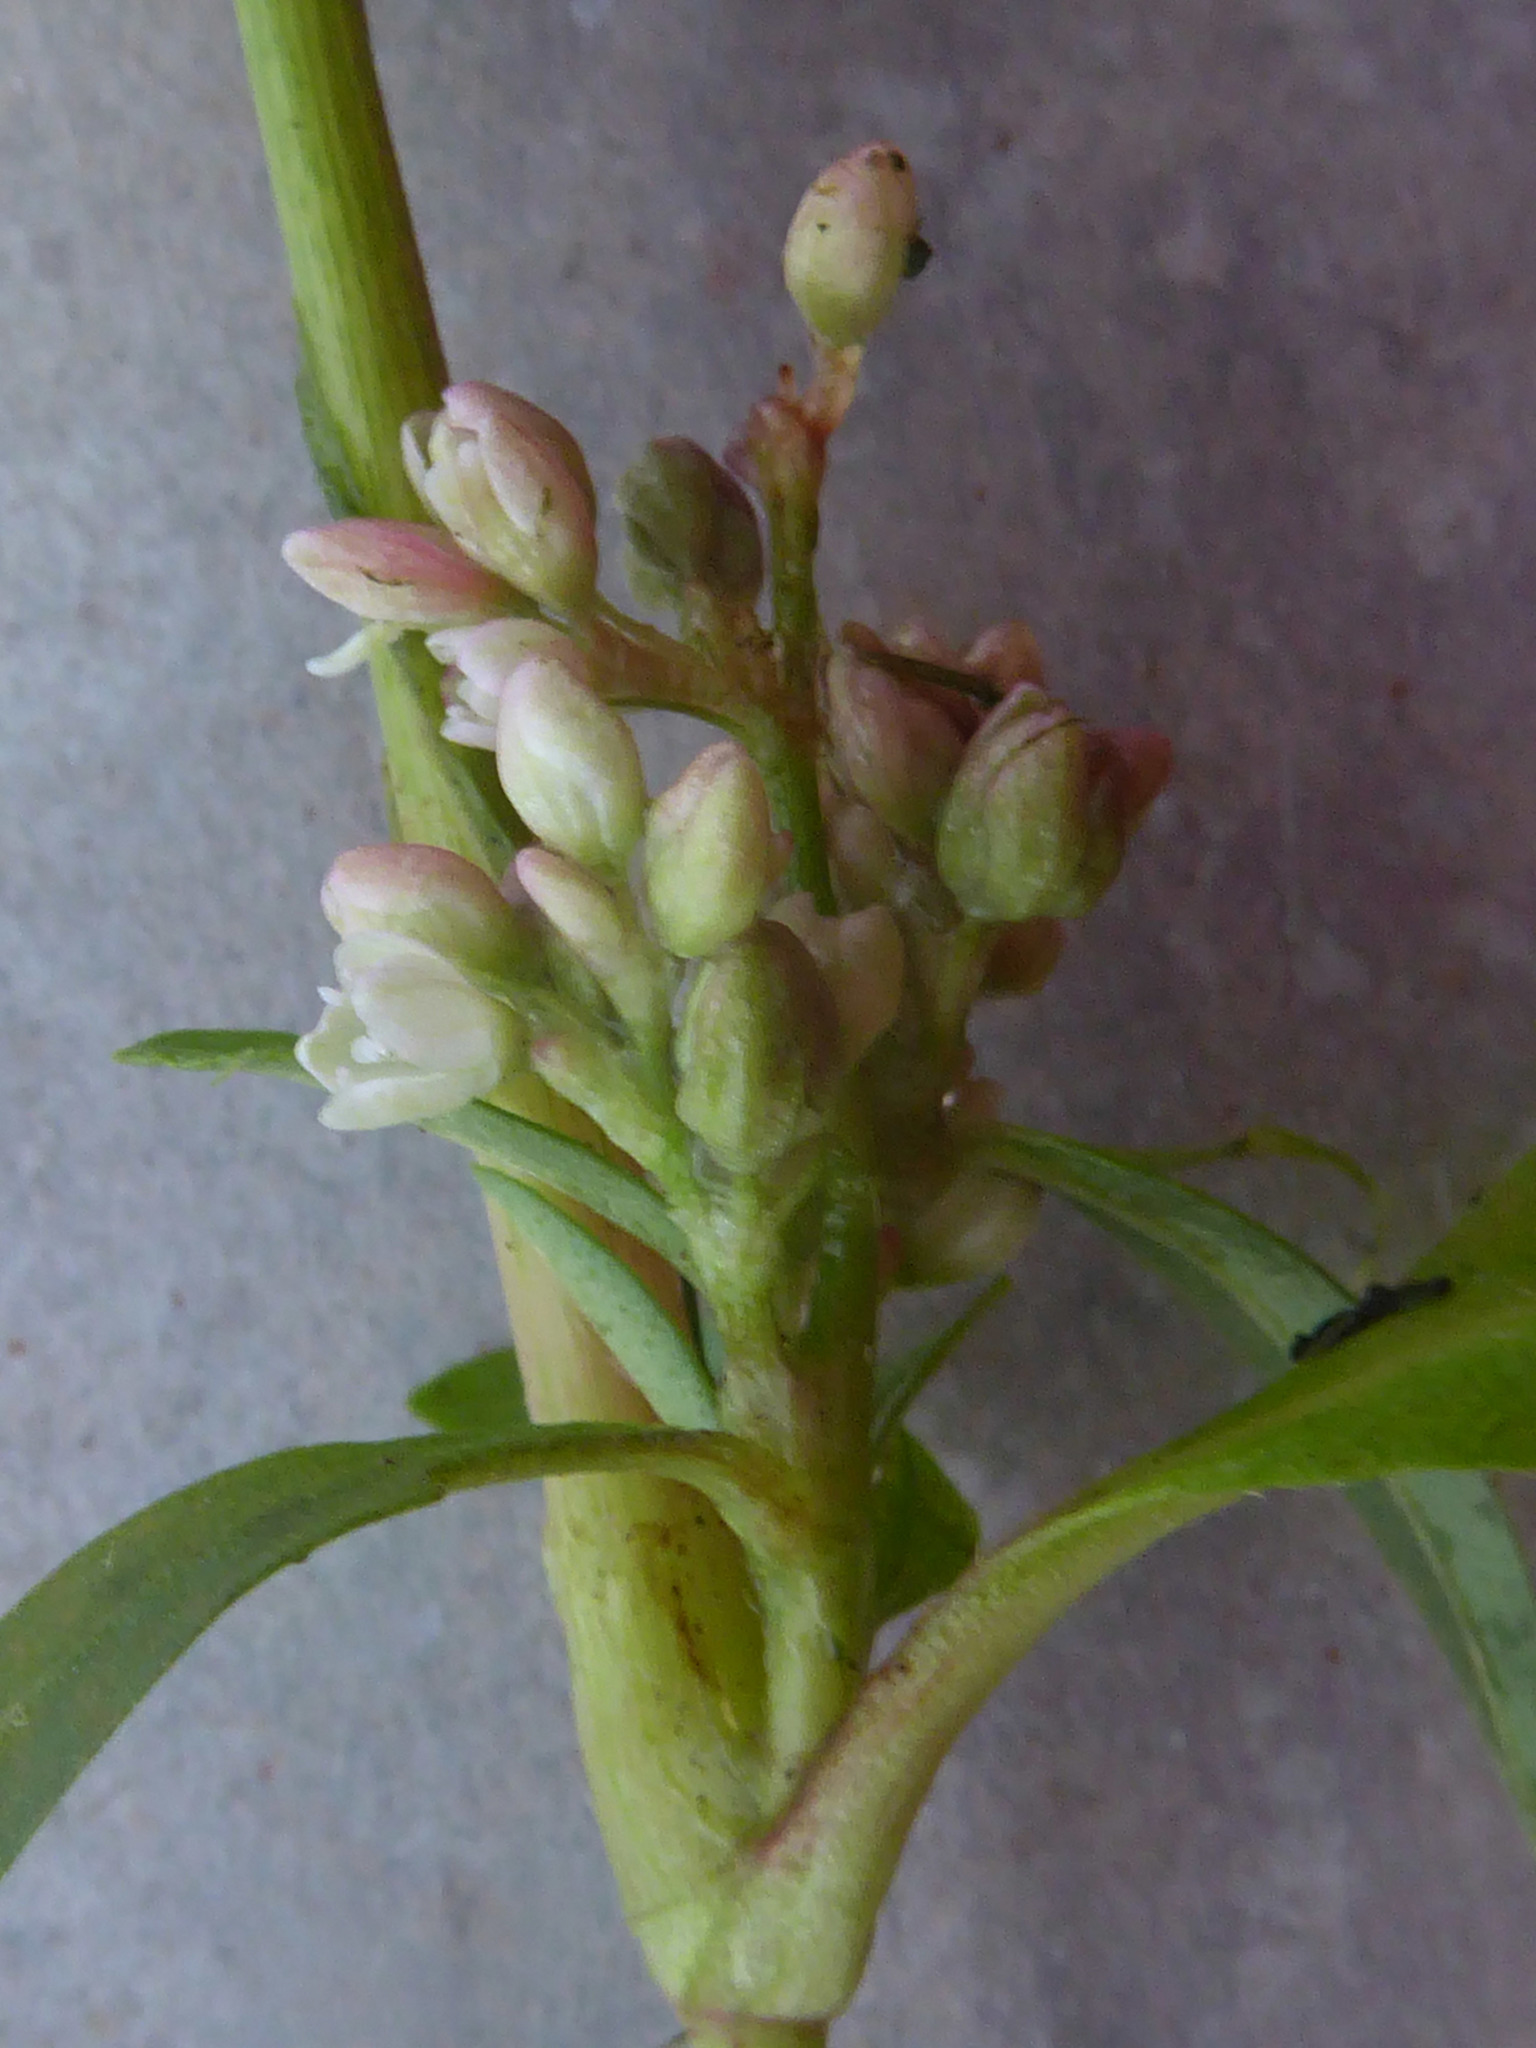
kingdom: Plantae
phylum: Tracheophyta
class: Magnoliopsida
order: Caryophyllales
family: Polygonaceae
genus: Persicaria
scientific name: Persicaria maculosa
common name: Redshank
